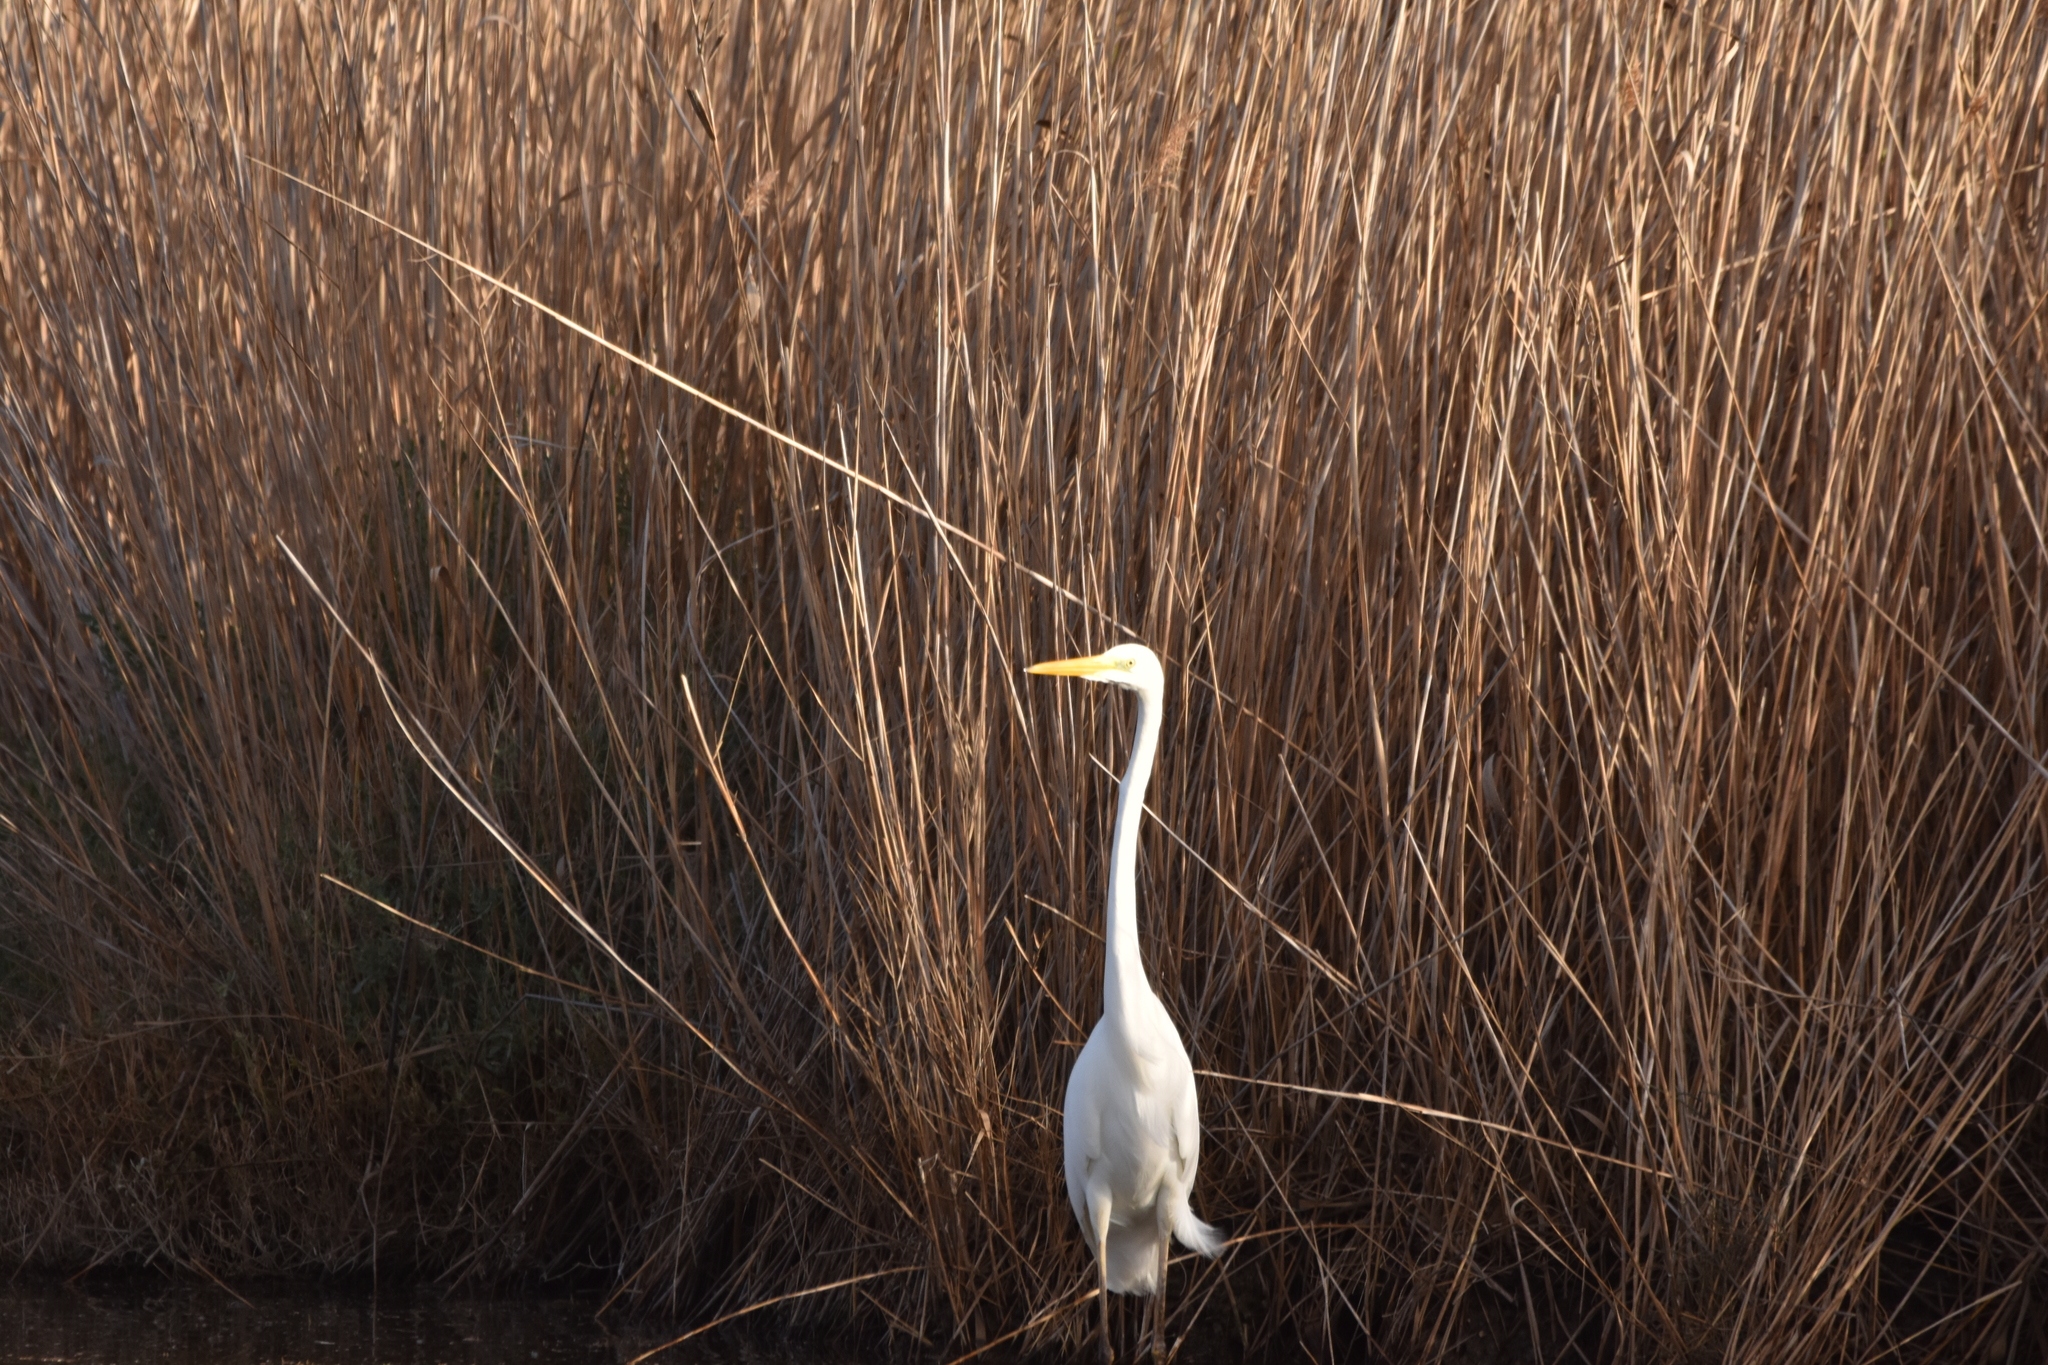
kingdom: Animalia
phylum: Chordata
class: Aves
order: Pelecaniformes
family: Ardeidae
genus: Ardea
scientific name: Ardea alba
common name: Great egret
